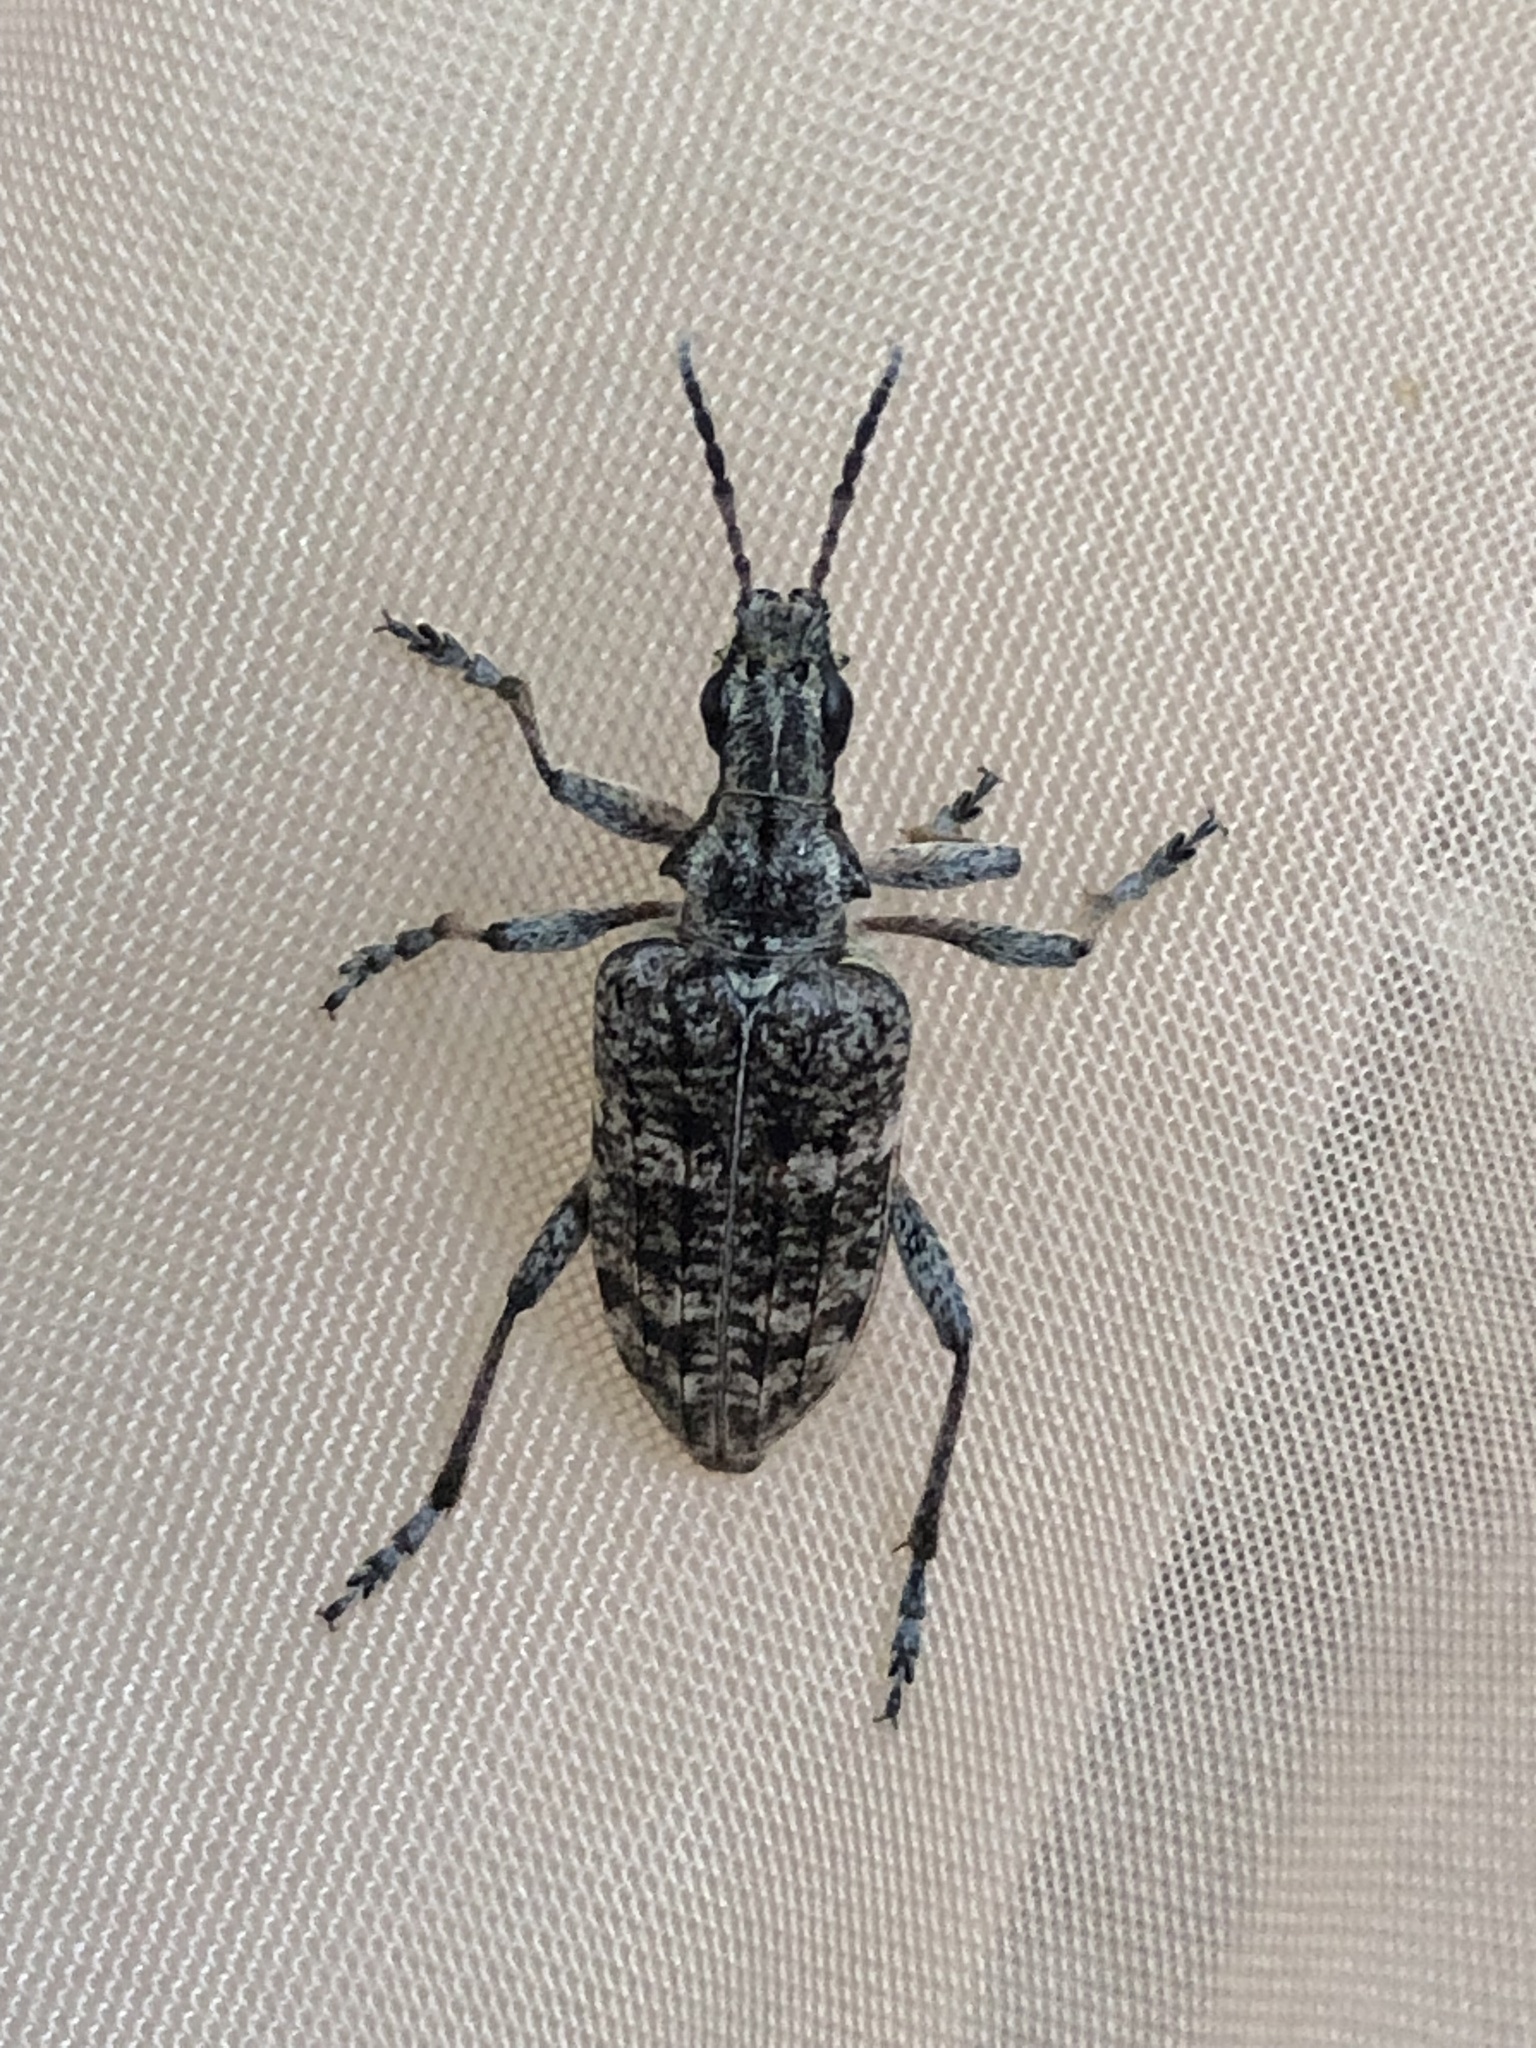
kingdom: Animalia
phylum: Arthropoda
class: Insecta
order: Coleoptera
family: Cerambycidae
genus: Rhagium
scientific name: Rhagium inquisitor
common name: Ribbed pine borer
